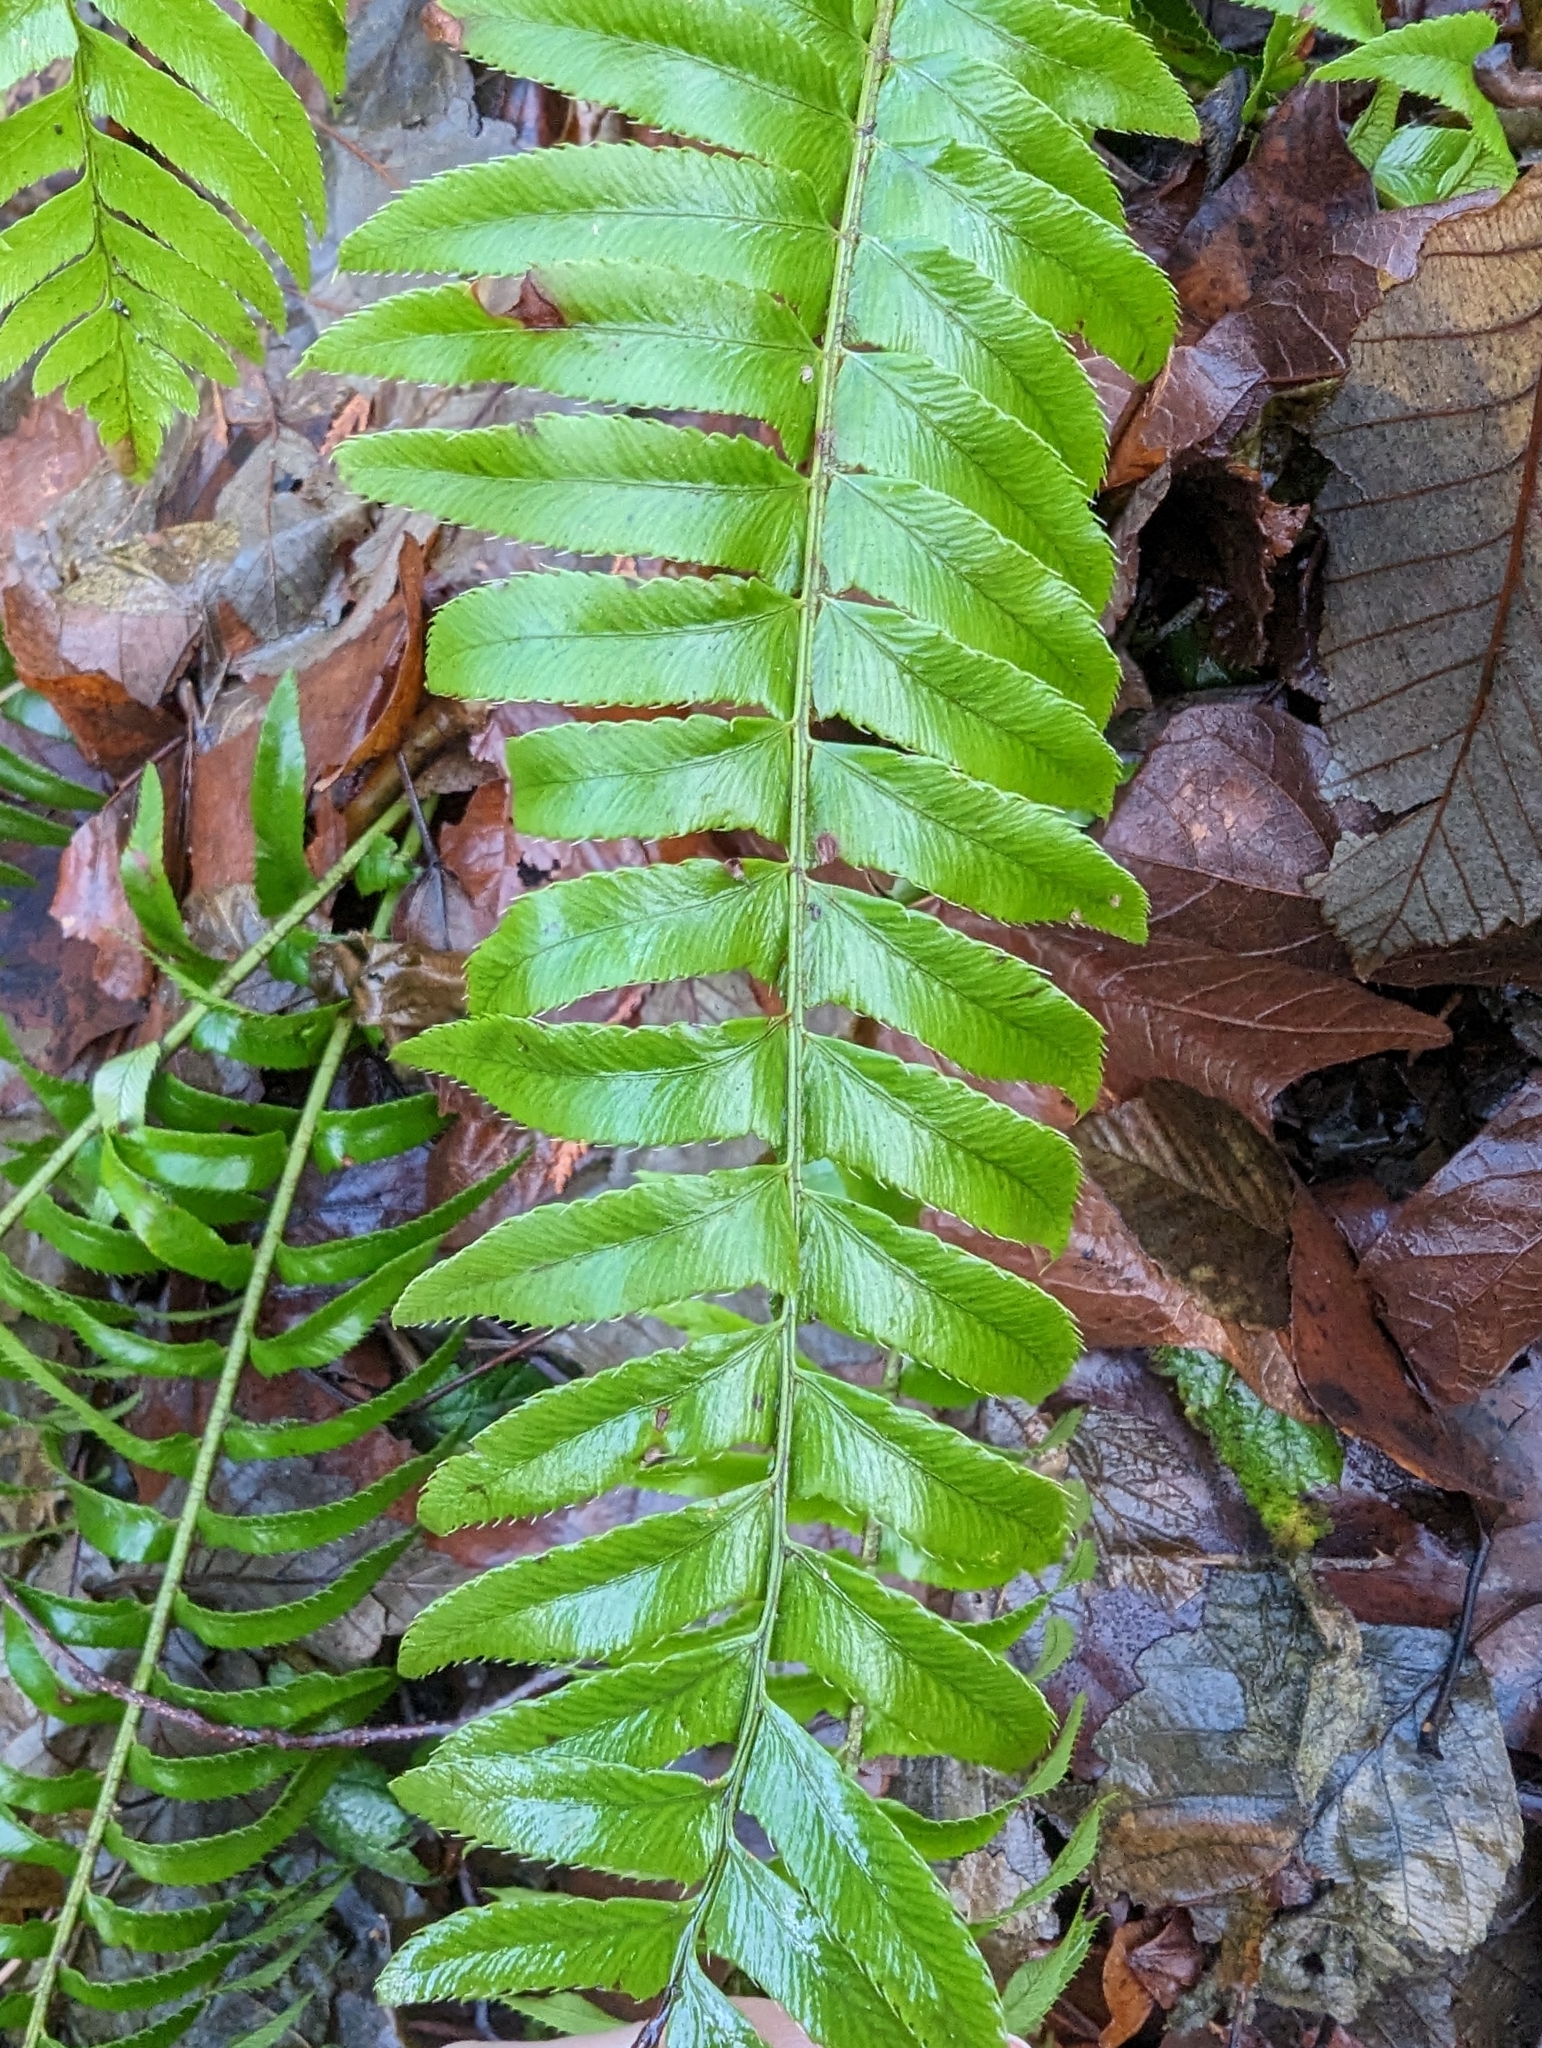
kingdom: Plantae
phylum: Tracheophyta
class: Polypodiopsida
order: Polypodiales
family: Dryopteridaceae
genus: Polystichum
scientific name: Polystichum munitum
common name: Western sword-fern
